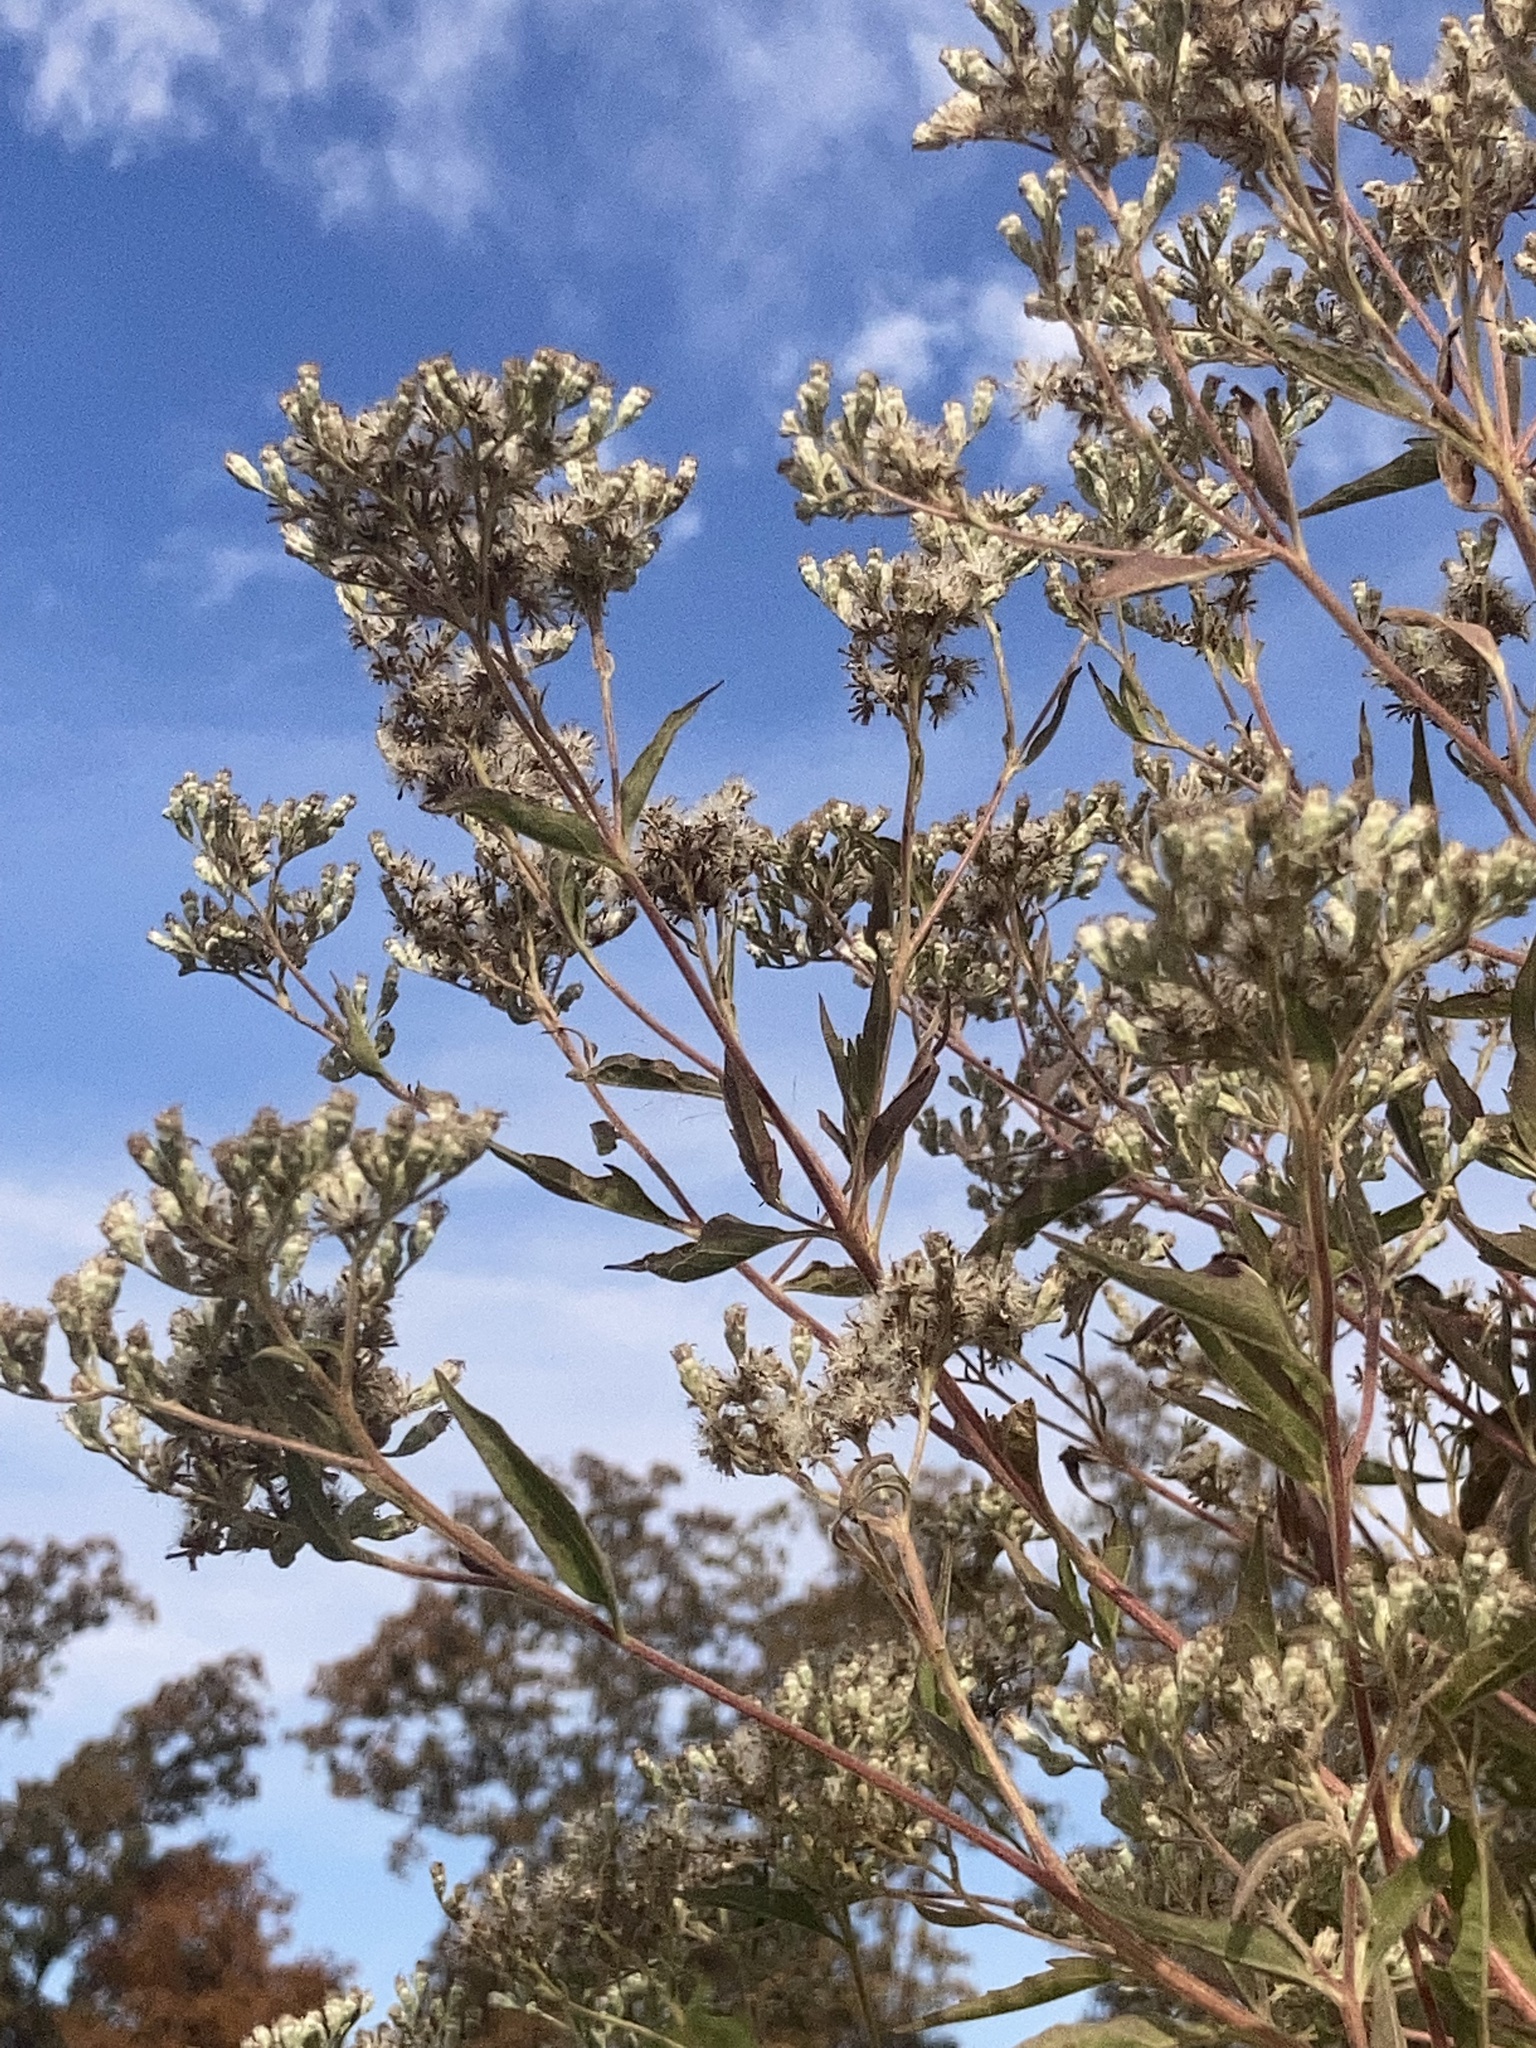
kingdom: Plantae
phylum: Tracheophyta
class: Magnoliopsida
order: Asterales
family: Asteraceae
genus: Eupatorium
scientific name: Eupatorium serotinum
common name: Late boneset
